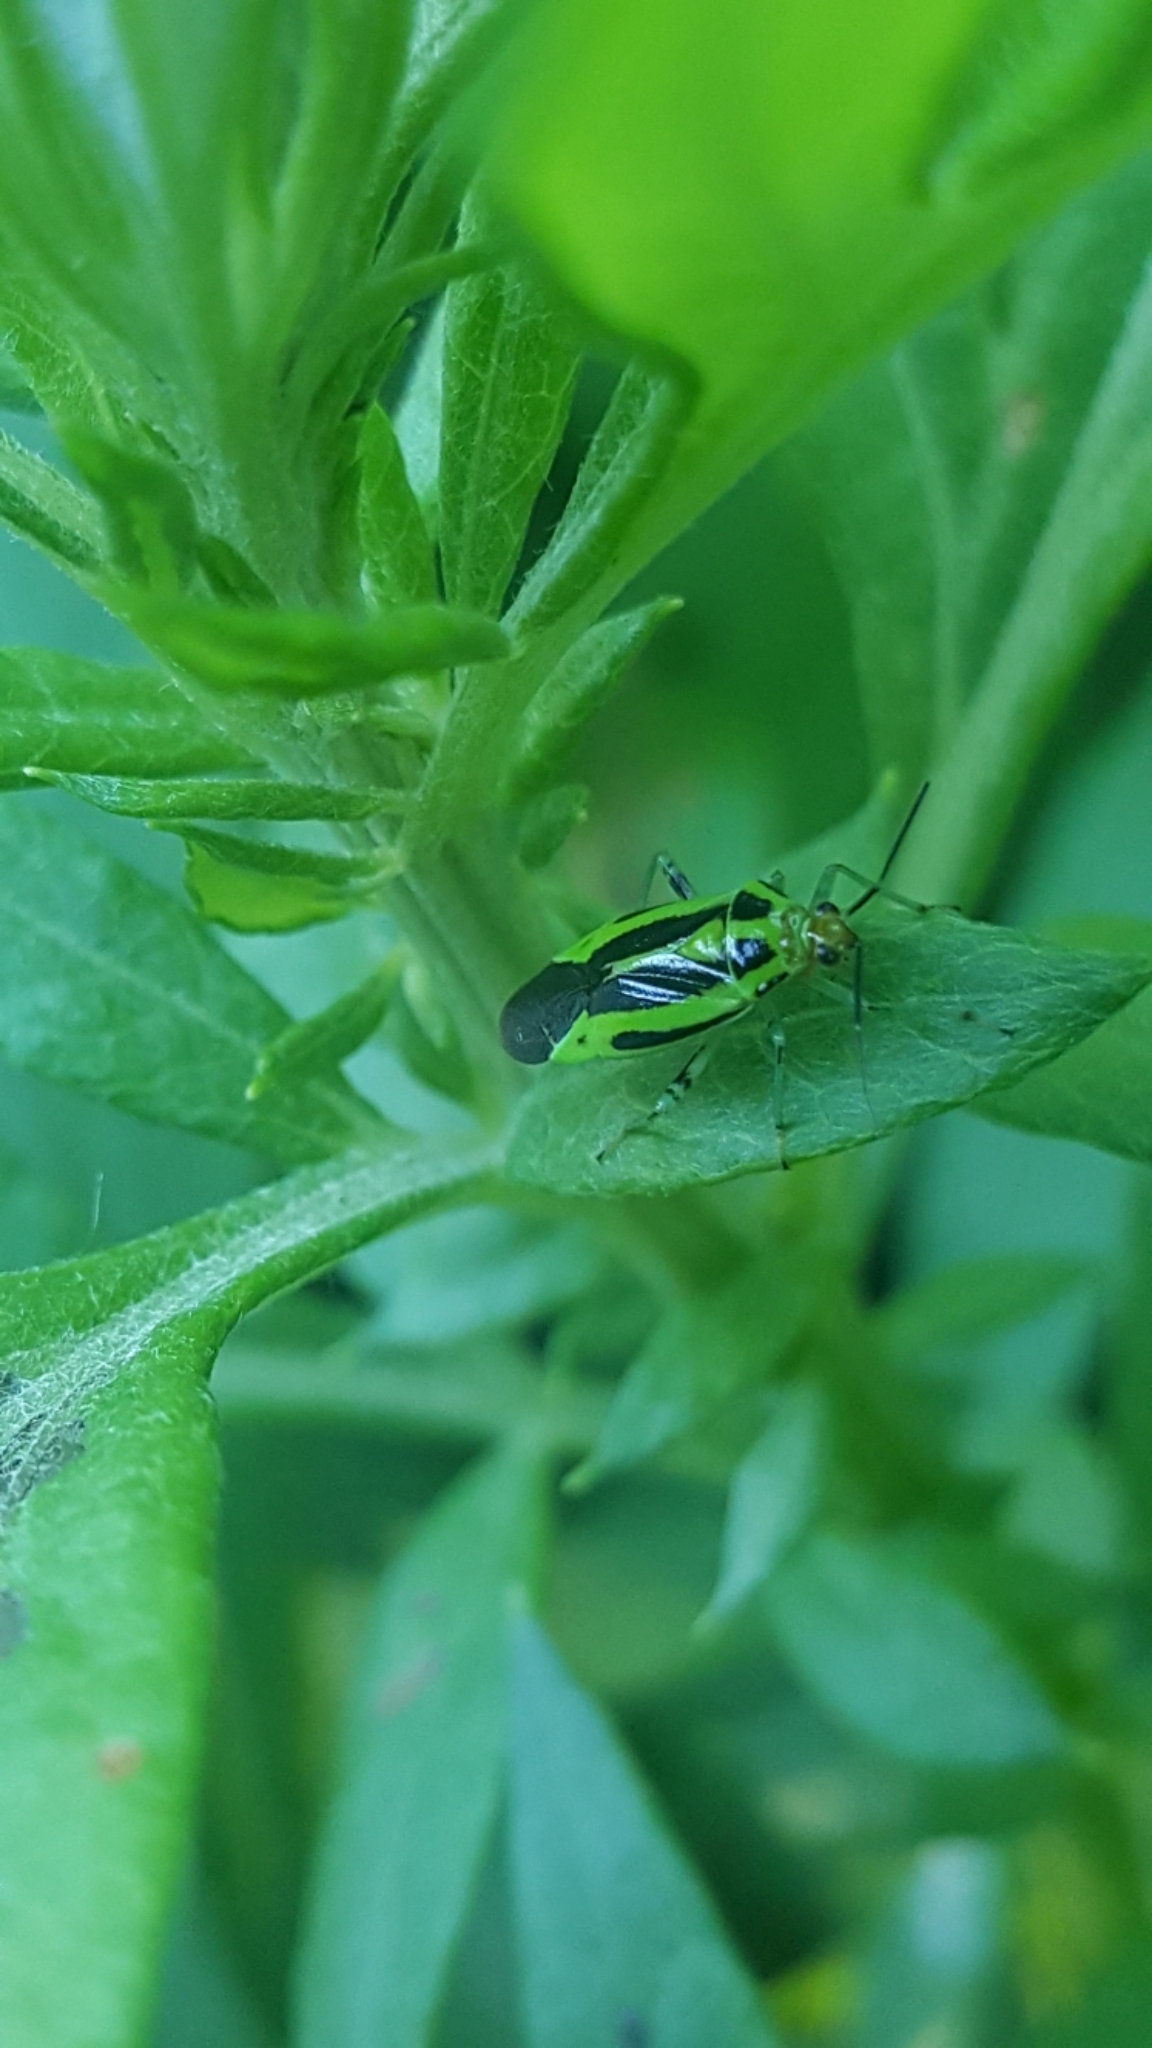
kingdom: Animalia
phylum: Arthropoda
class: Insecta
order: Hemiptera
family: Miridae
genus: Poecilocapsus
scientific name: Poecilocapsus lineatus
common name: Four-lined plant bug
